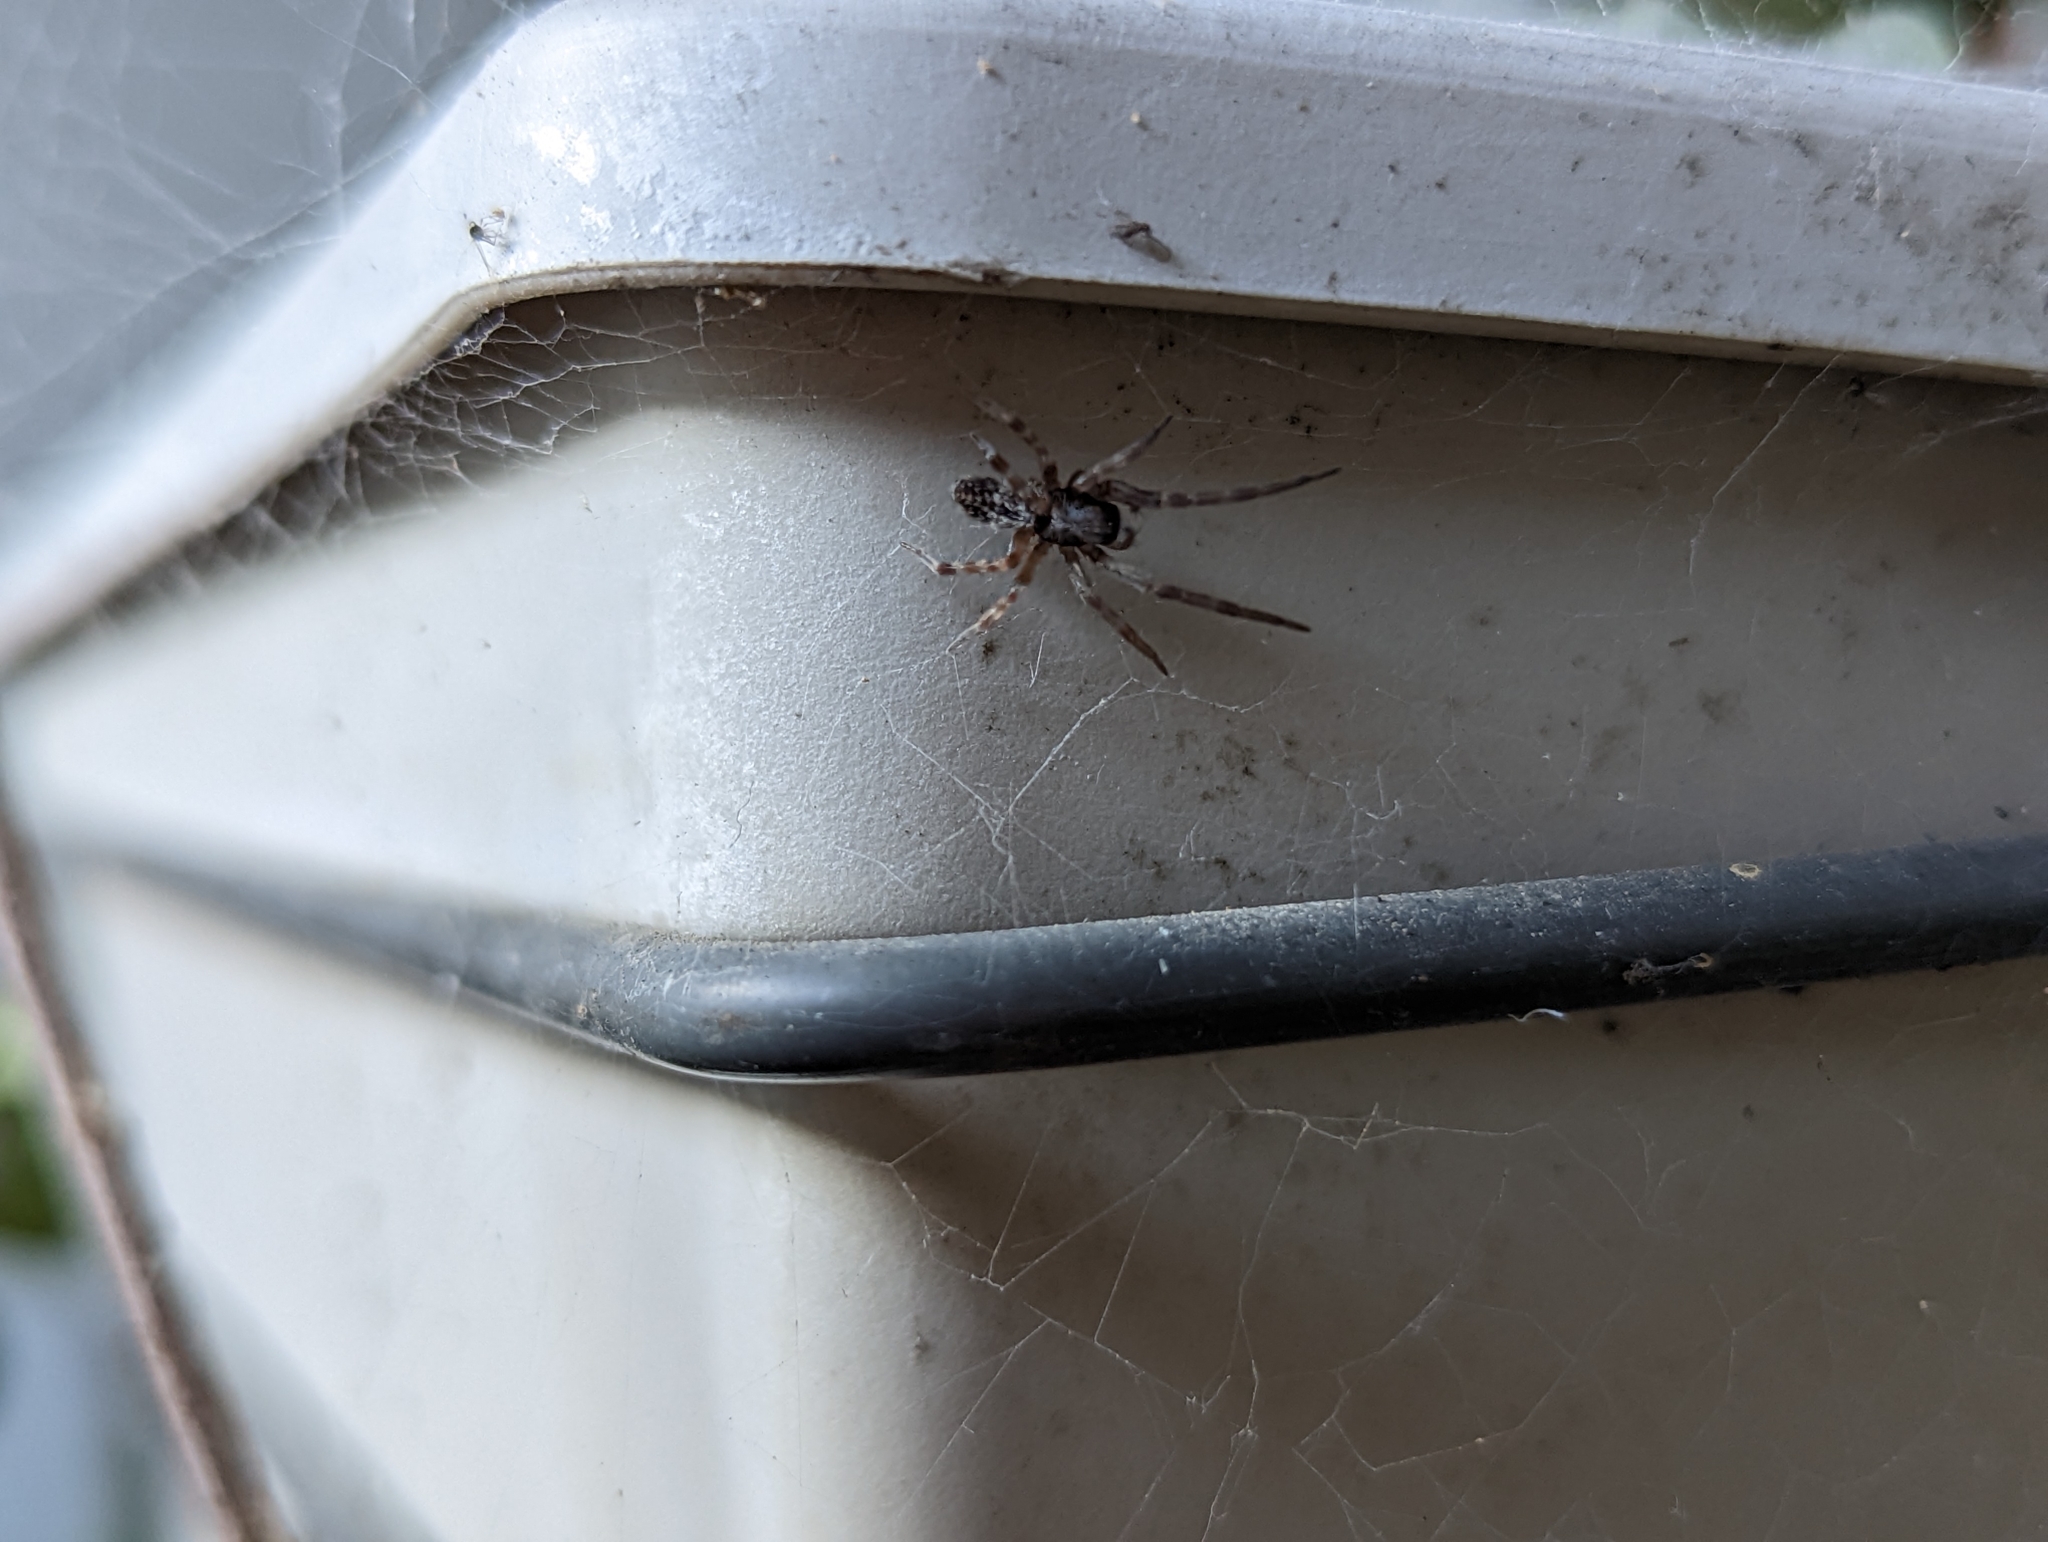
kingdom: Animalia
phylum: Arthropoda
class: Arachnida
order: Araneae
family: Desidae
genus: Badumna
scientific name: Badumna longinqua
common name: Gray house spider
